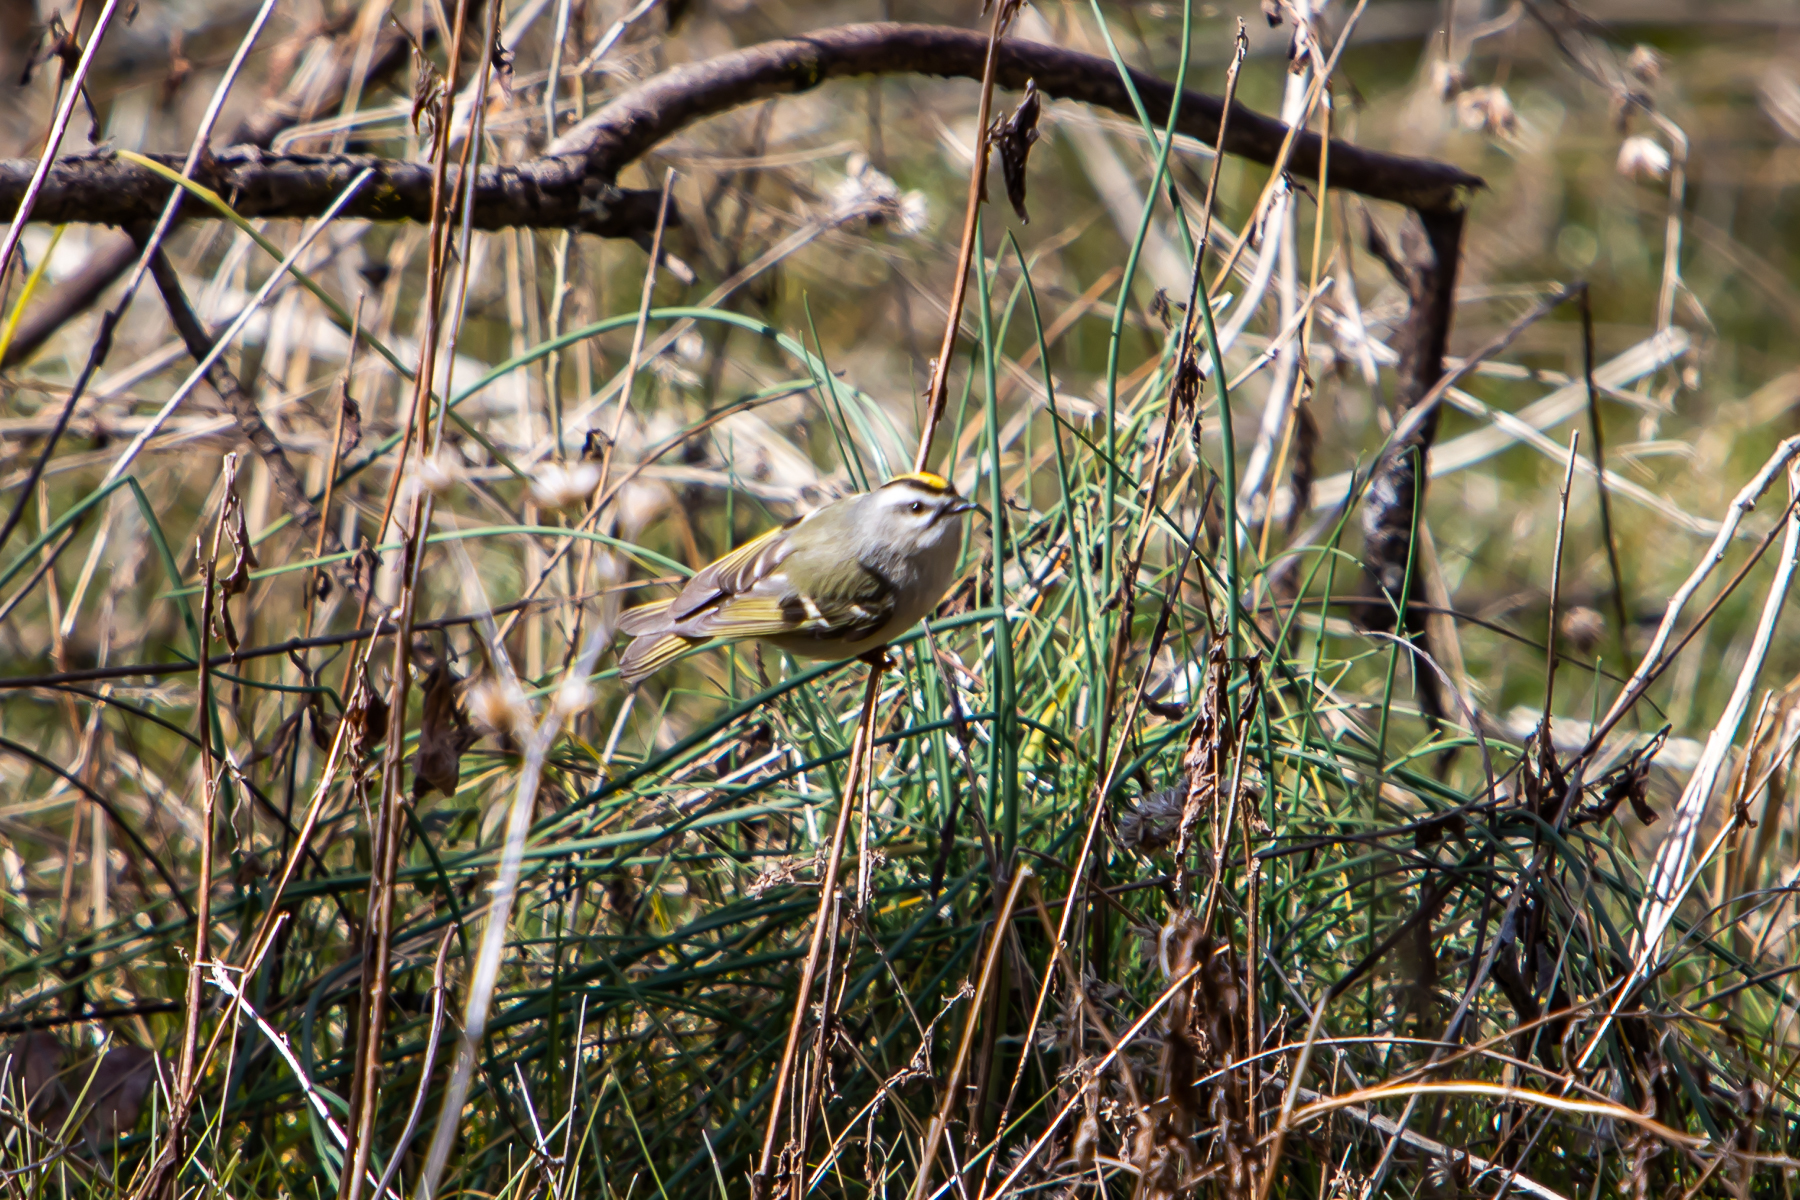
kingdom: Animalia
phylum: Chordata
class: Aves
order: Passeriformes
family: Regulidae
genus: Regulus
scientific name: Regulus satrapa
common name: Golden-crowned kinglet
